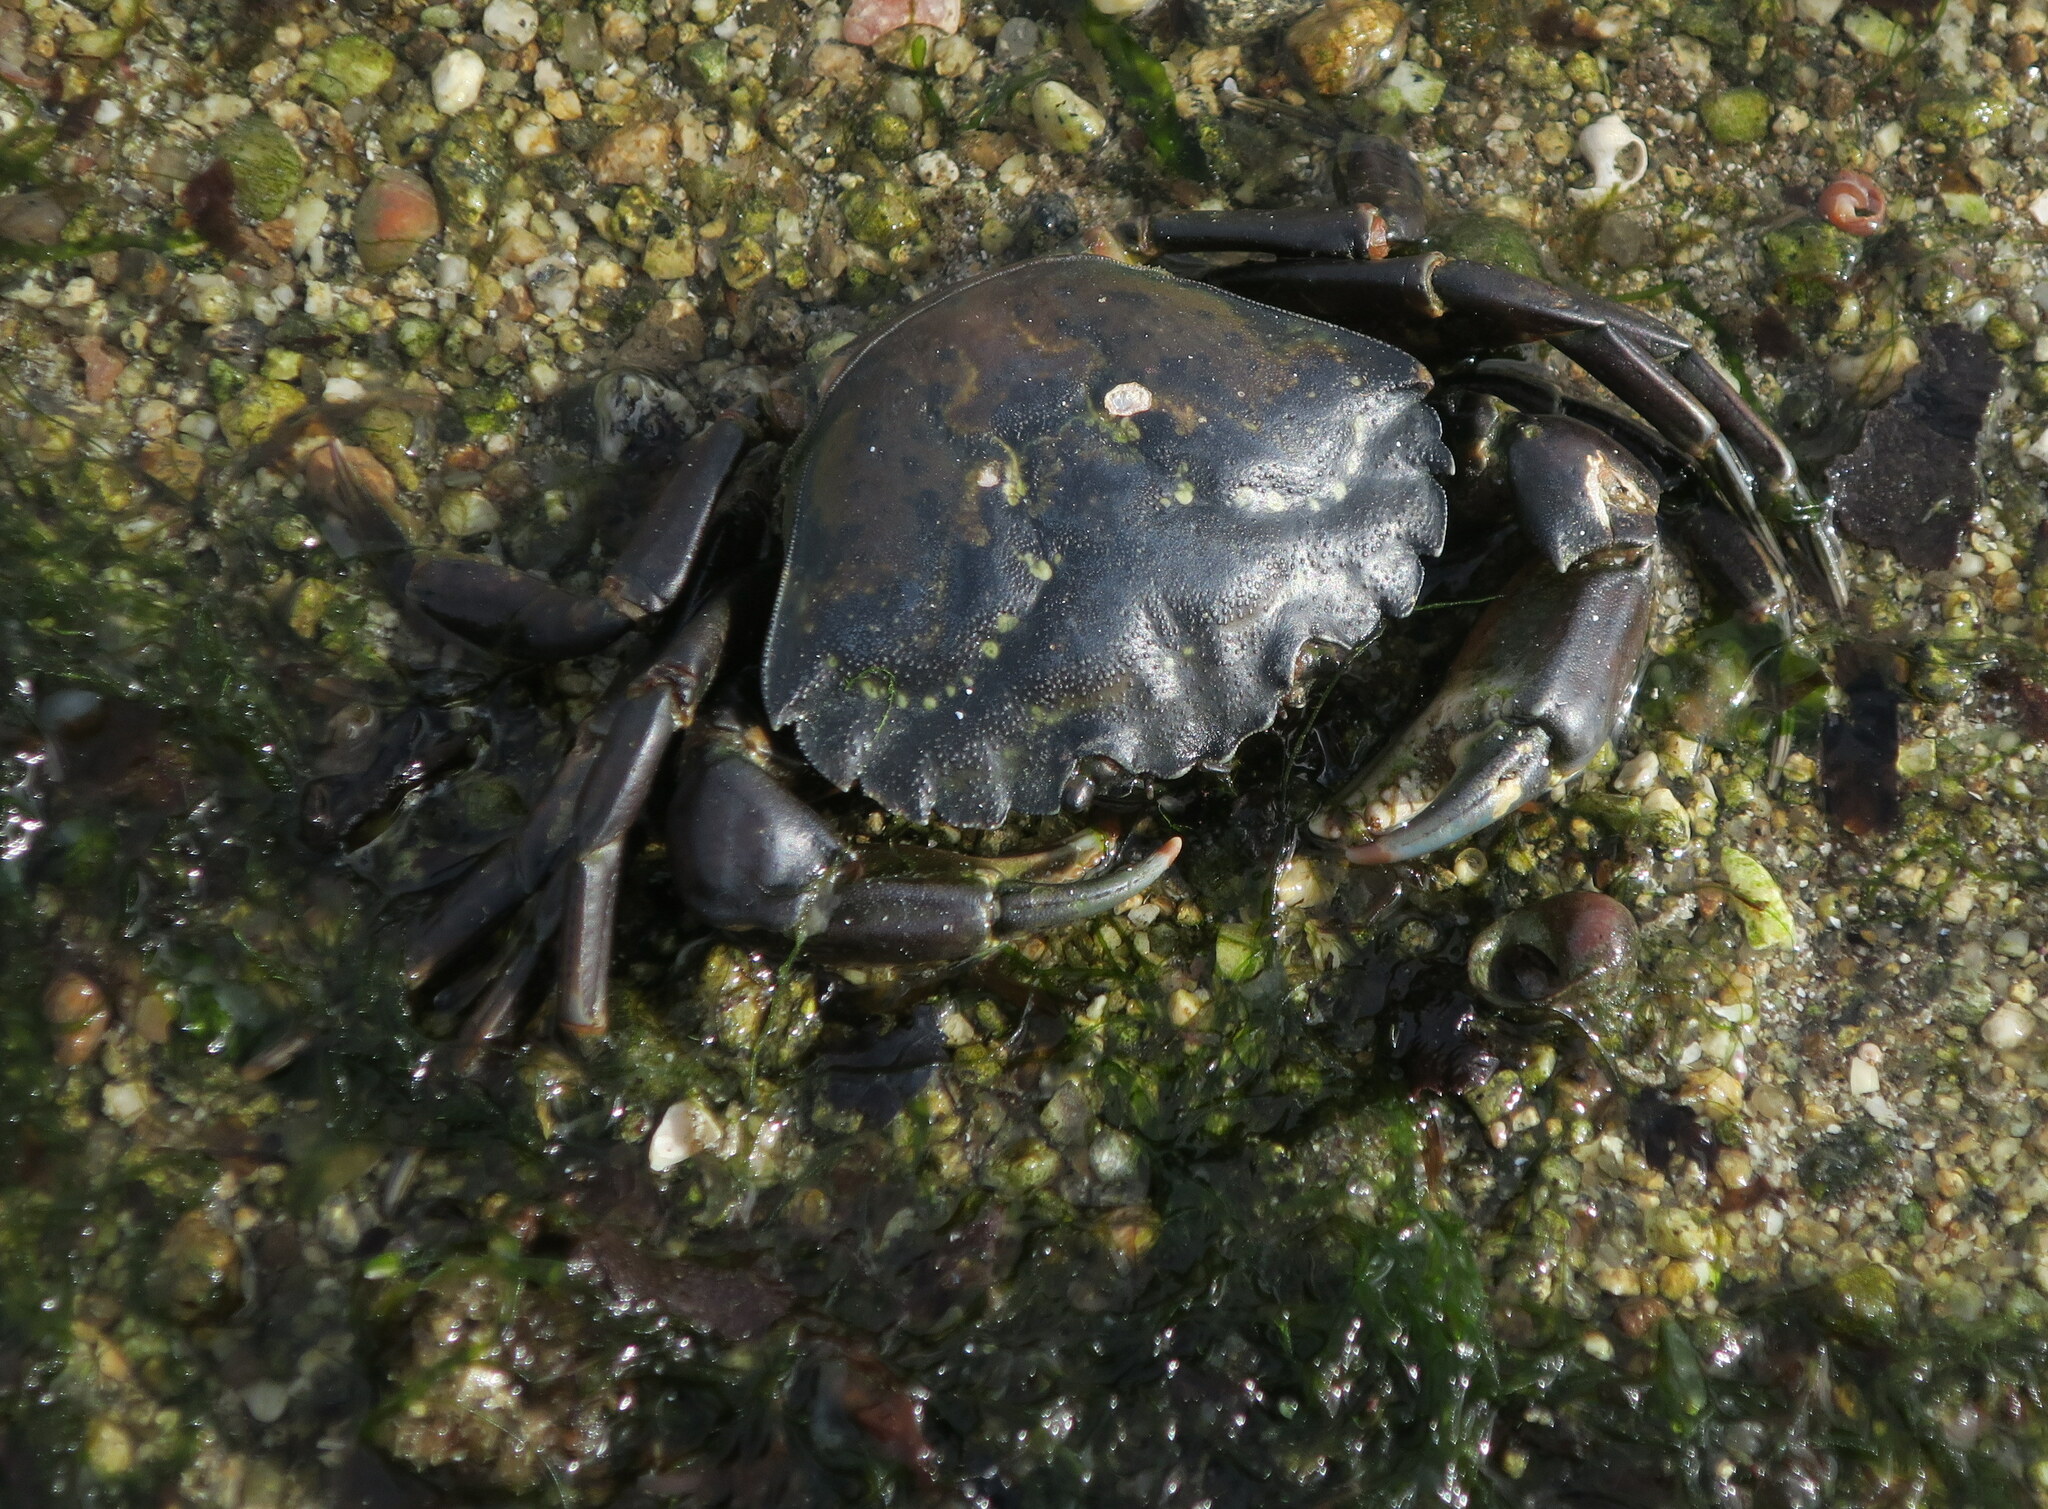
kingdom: Animalia
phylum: Arthropoda
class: Malacostraca
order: Decapoda
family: Carcinidae
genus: Carcinus
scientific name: Carcinus maenas
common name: European green crab
